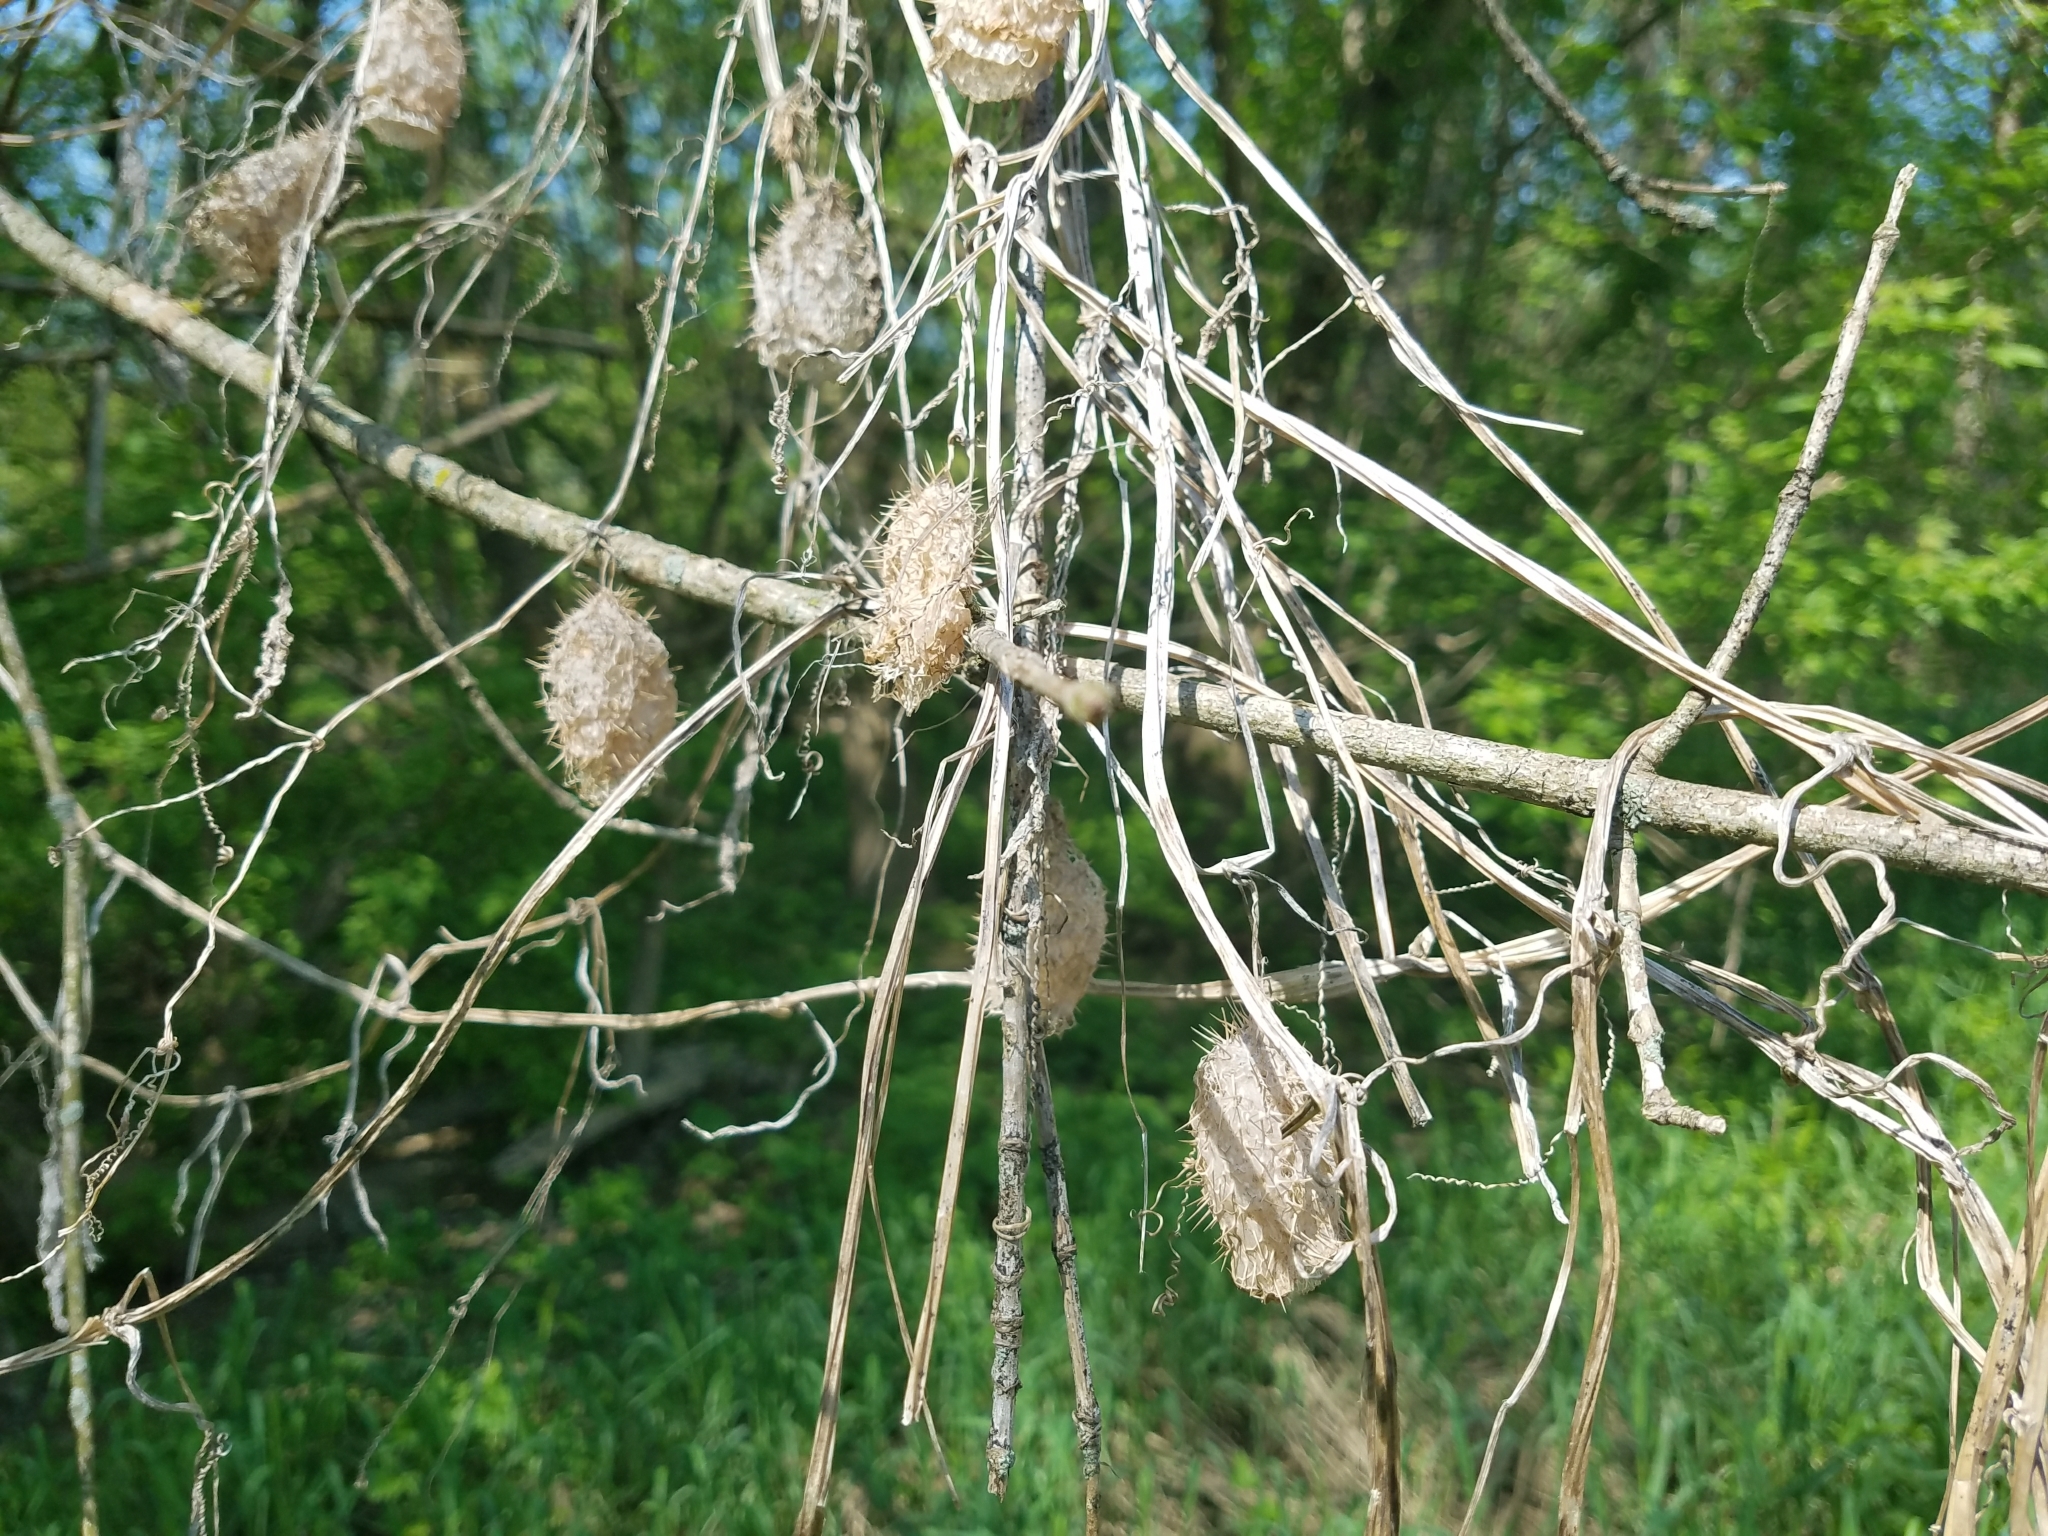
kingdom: Plantae
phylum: Tracheophyta
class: Magnoliopsida
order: Cucurbitales
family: Cucurbitaceae
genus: Echinocystis
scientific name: Echinocystis lobata
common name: Wild cucumber
